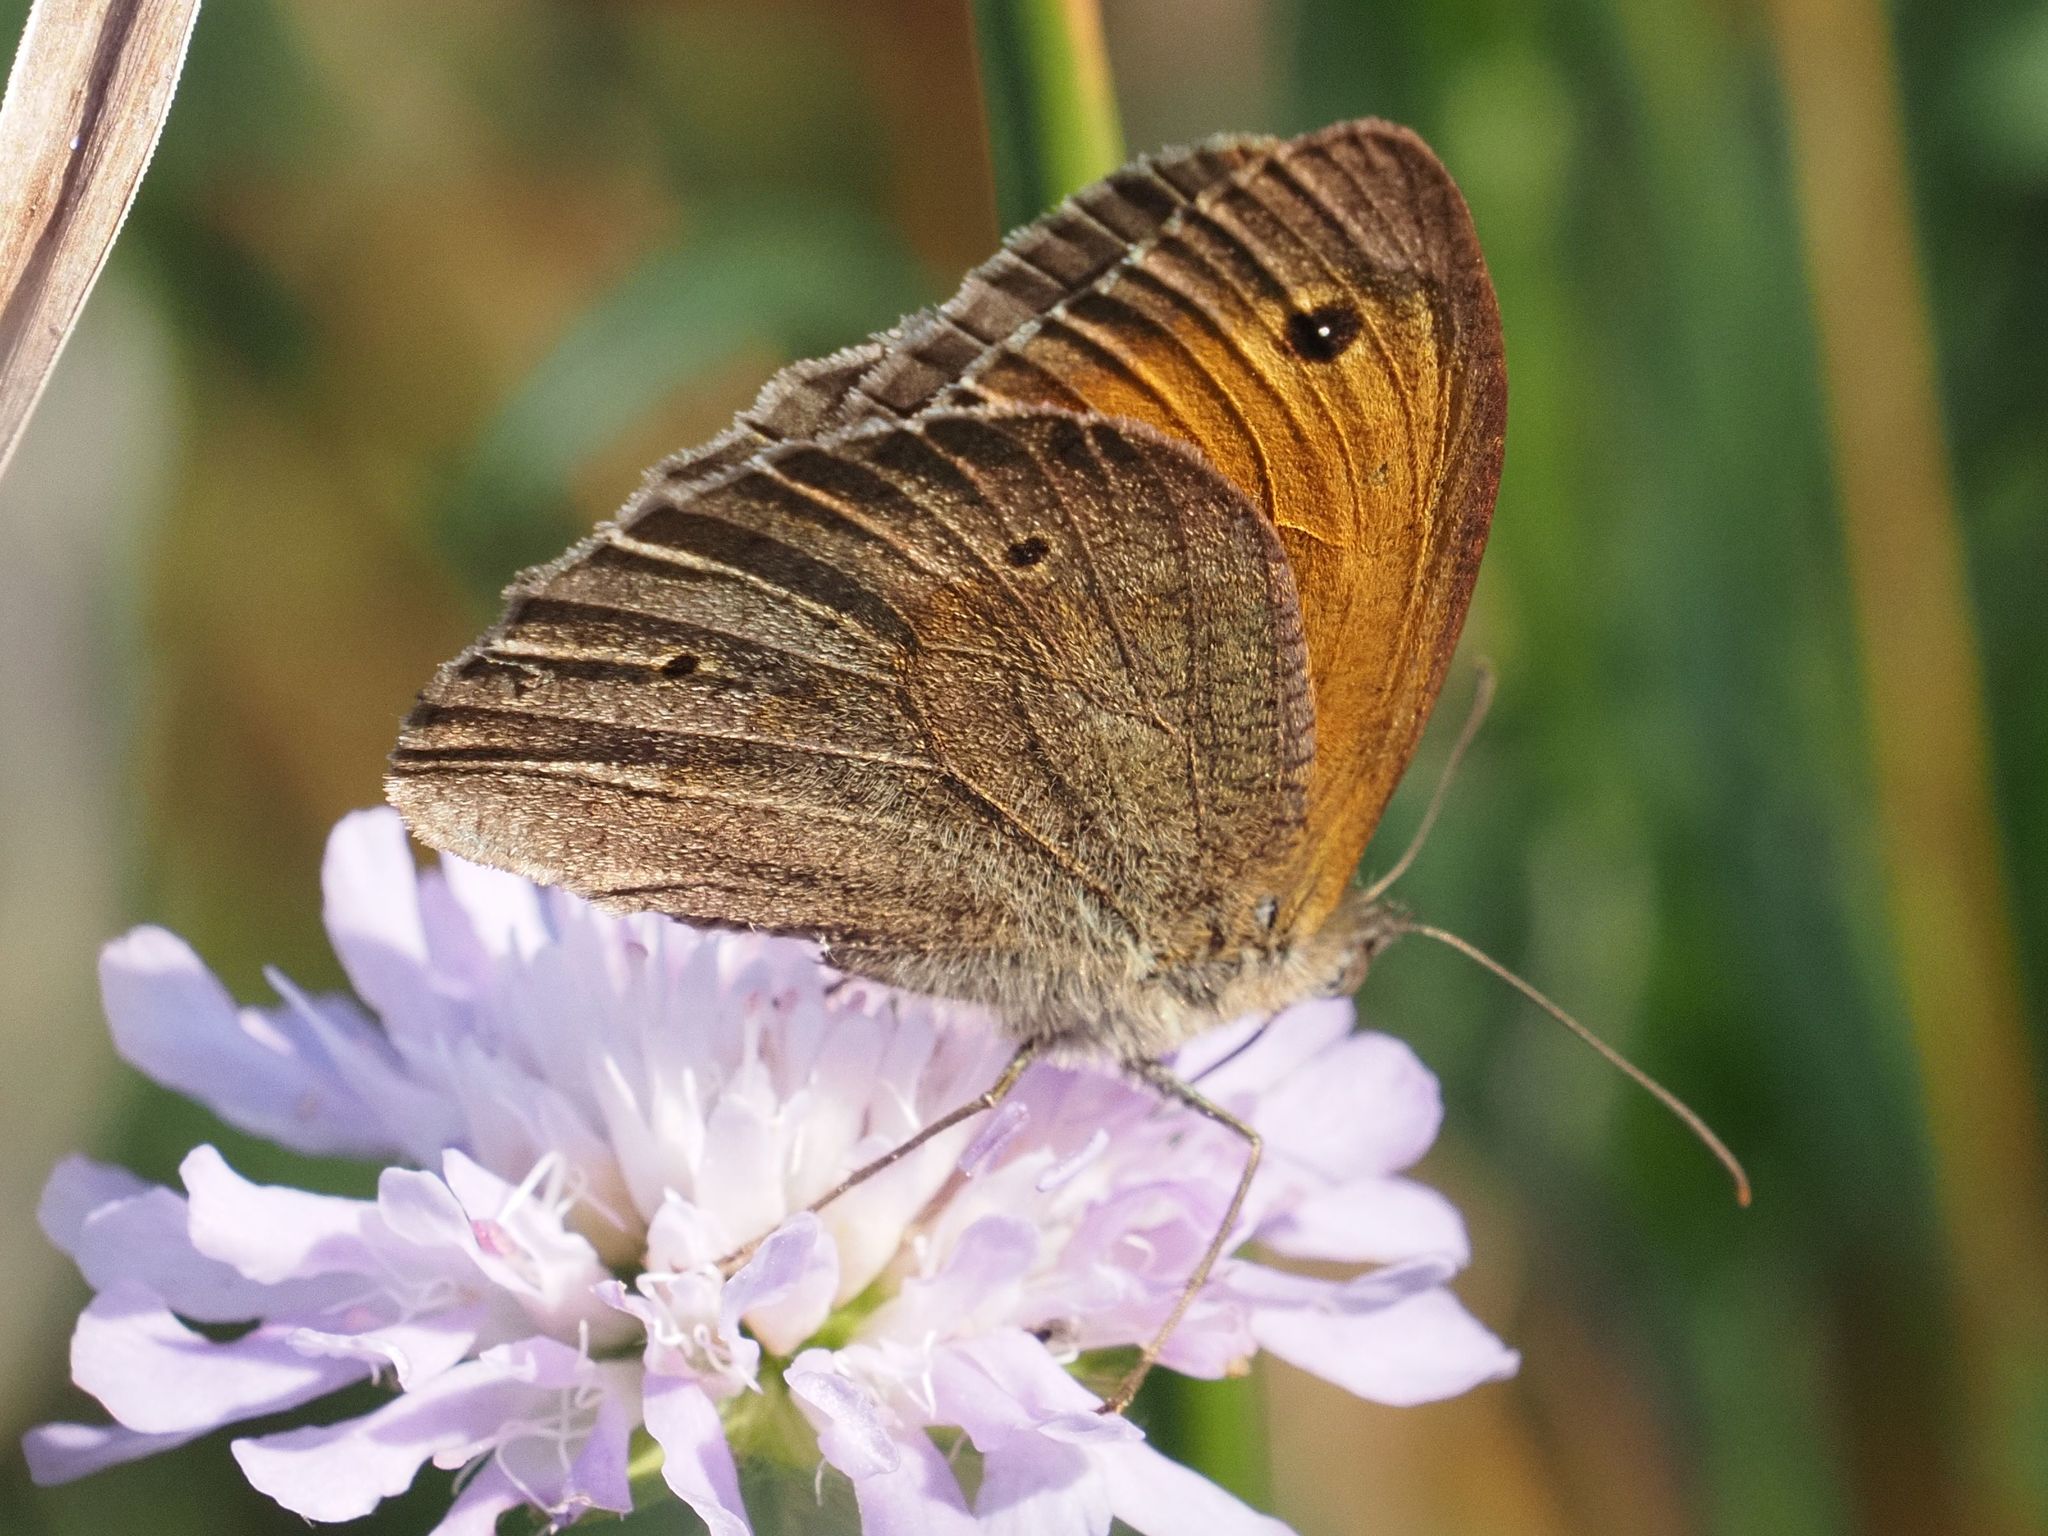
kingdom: Animalia
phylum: Arthropoda
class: Insecta
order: Lepidoptera
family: Nymphalidae
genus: Maniola
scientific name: Maniola jurtina
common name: Meadow brown
